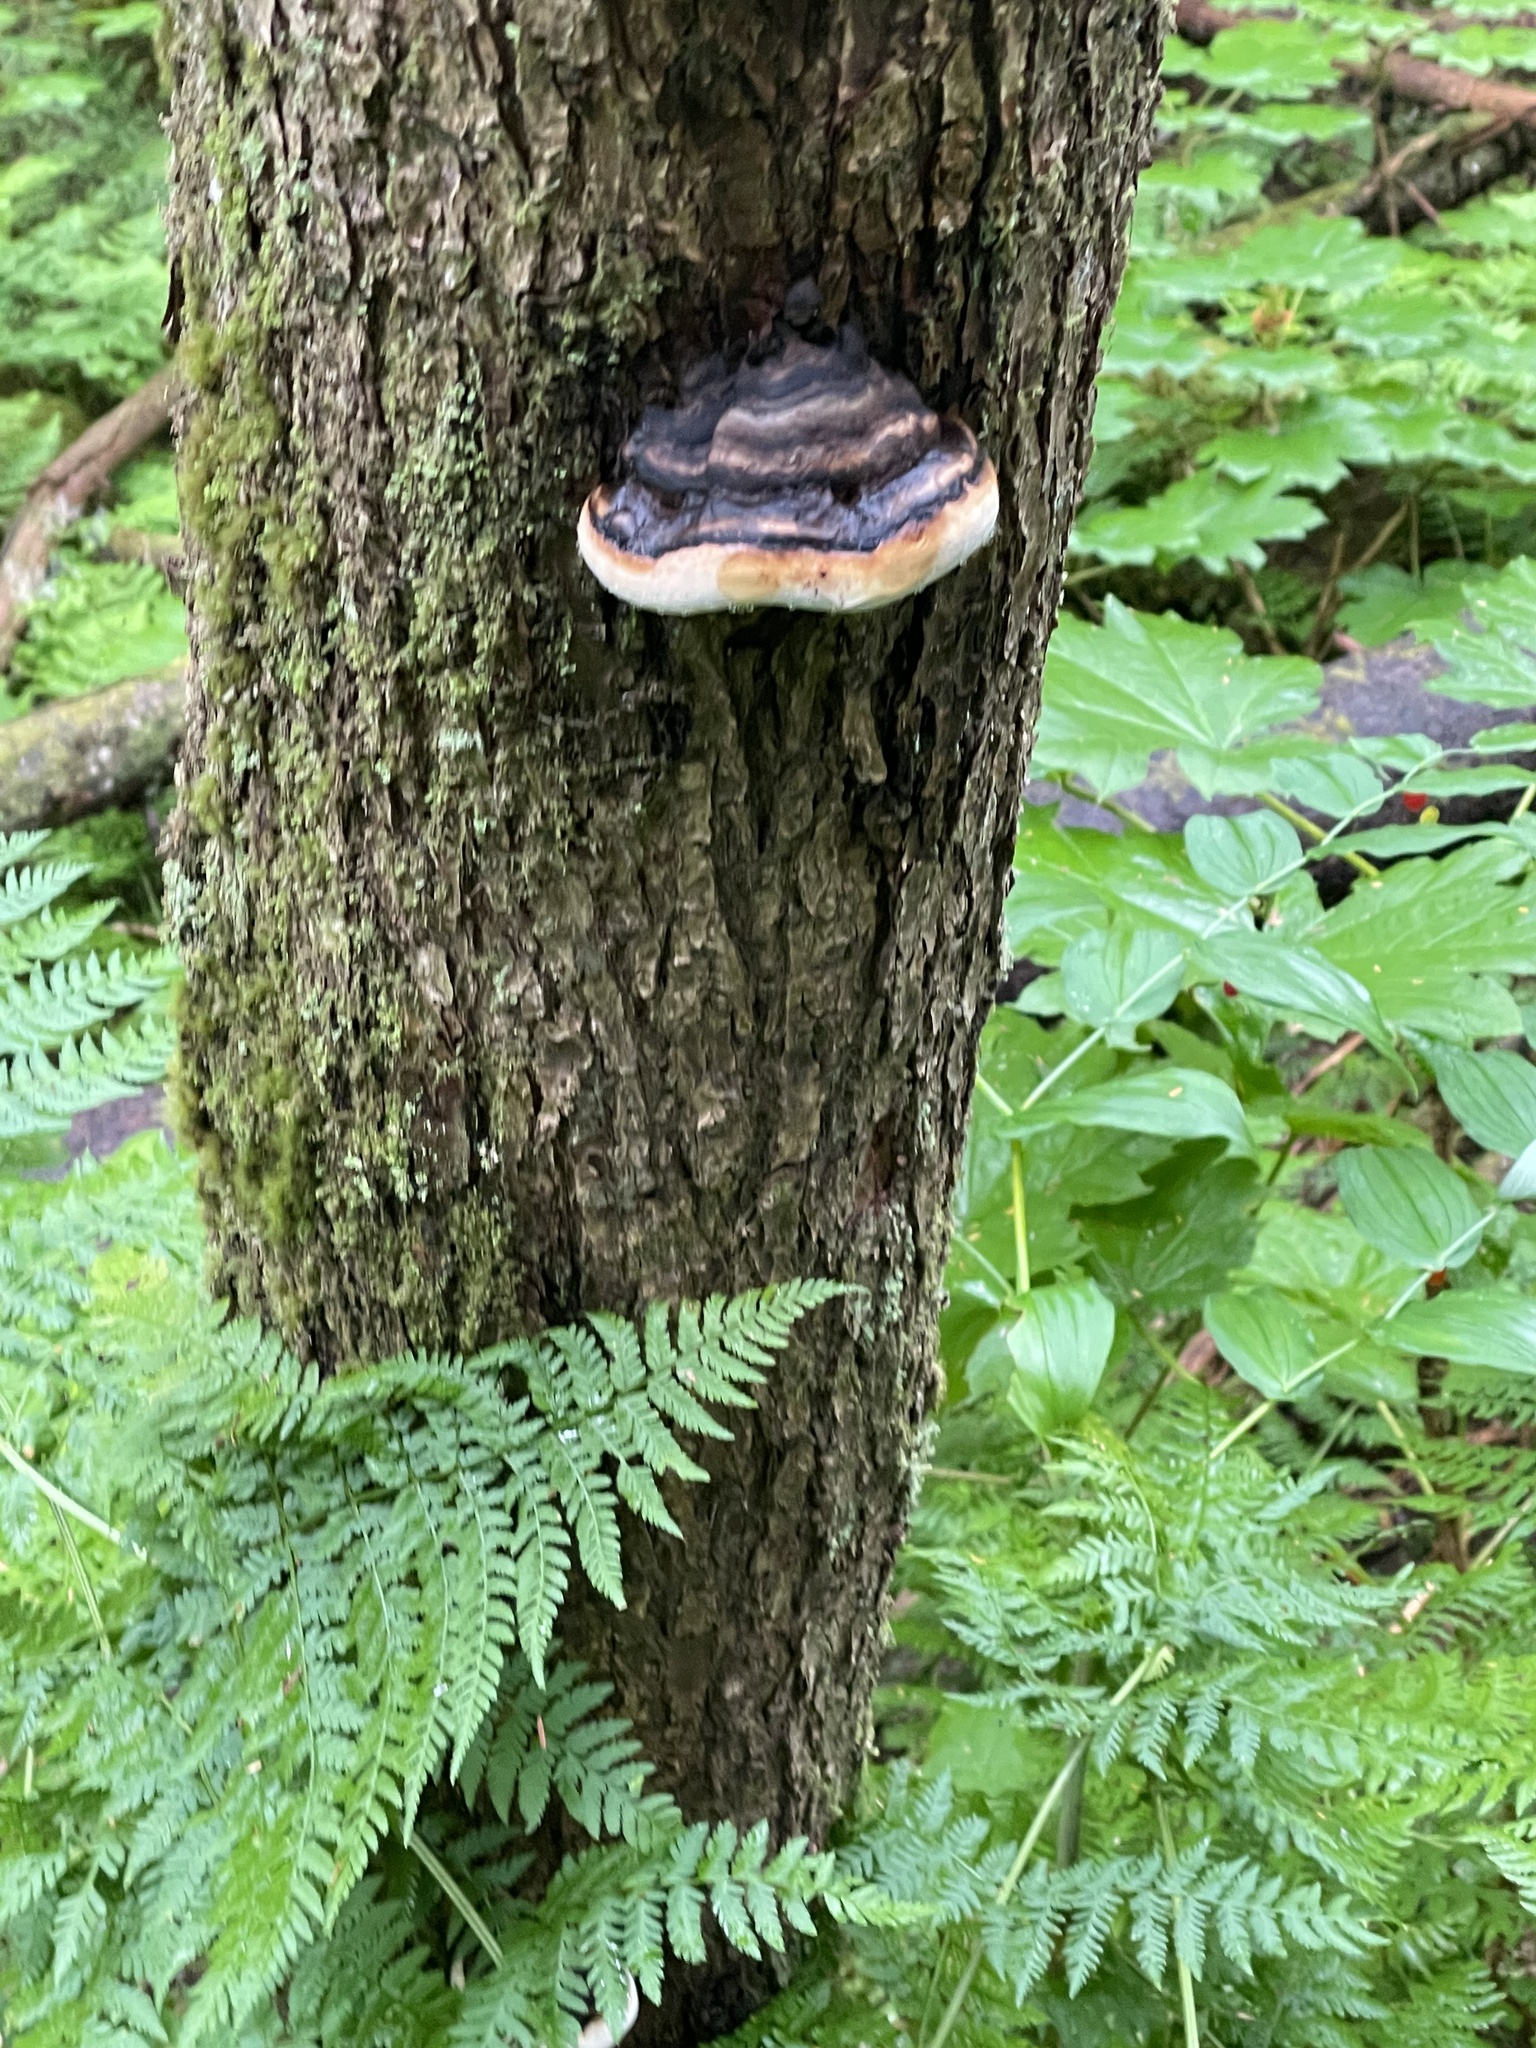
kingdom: Fungi
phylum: Basidiomycota
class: Agaricomycetes
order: Polyporales
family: Fomitopsidaceae
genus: Fomitopsis
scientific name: Fomitopsis ochracea
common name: American brown fomitopsis
